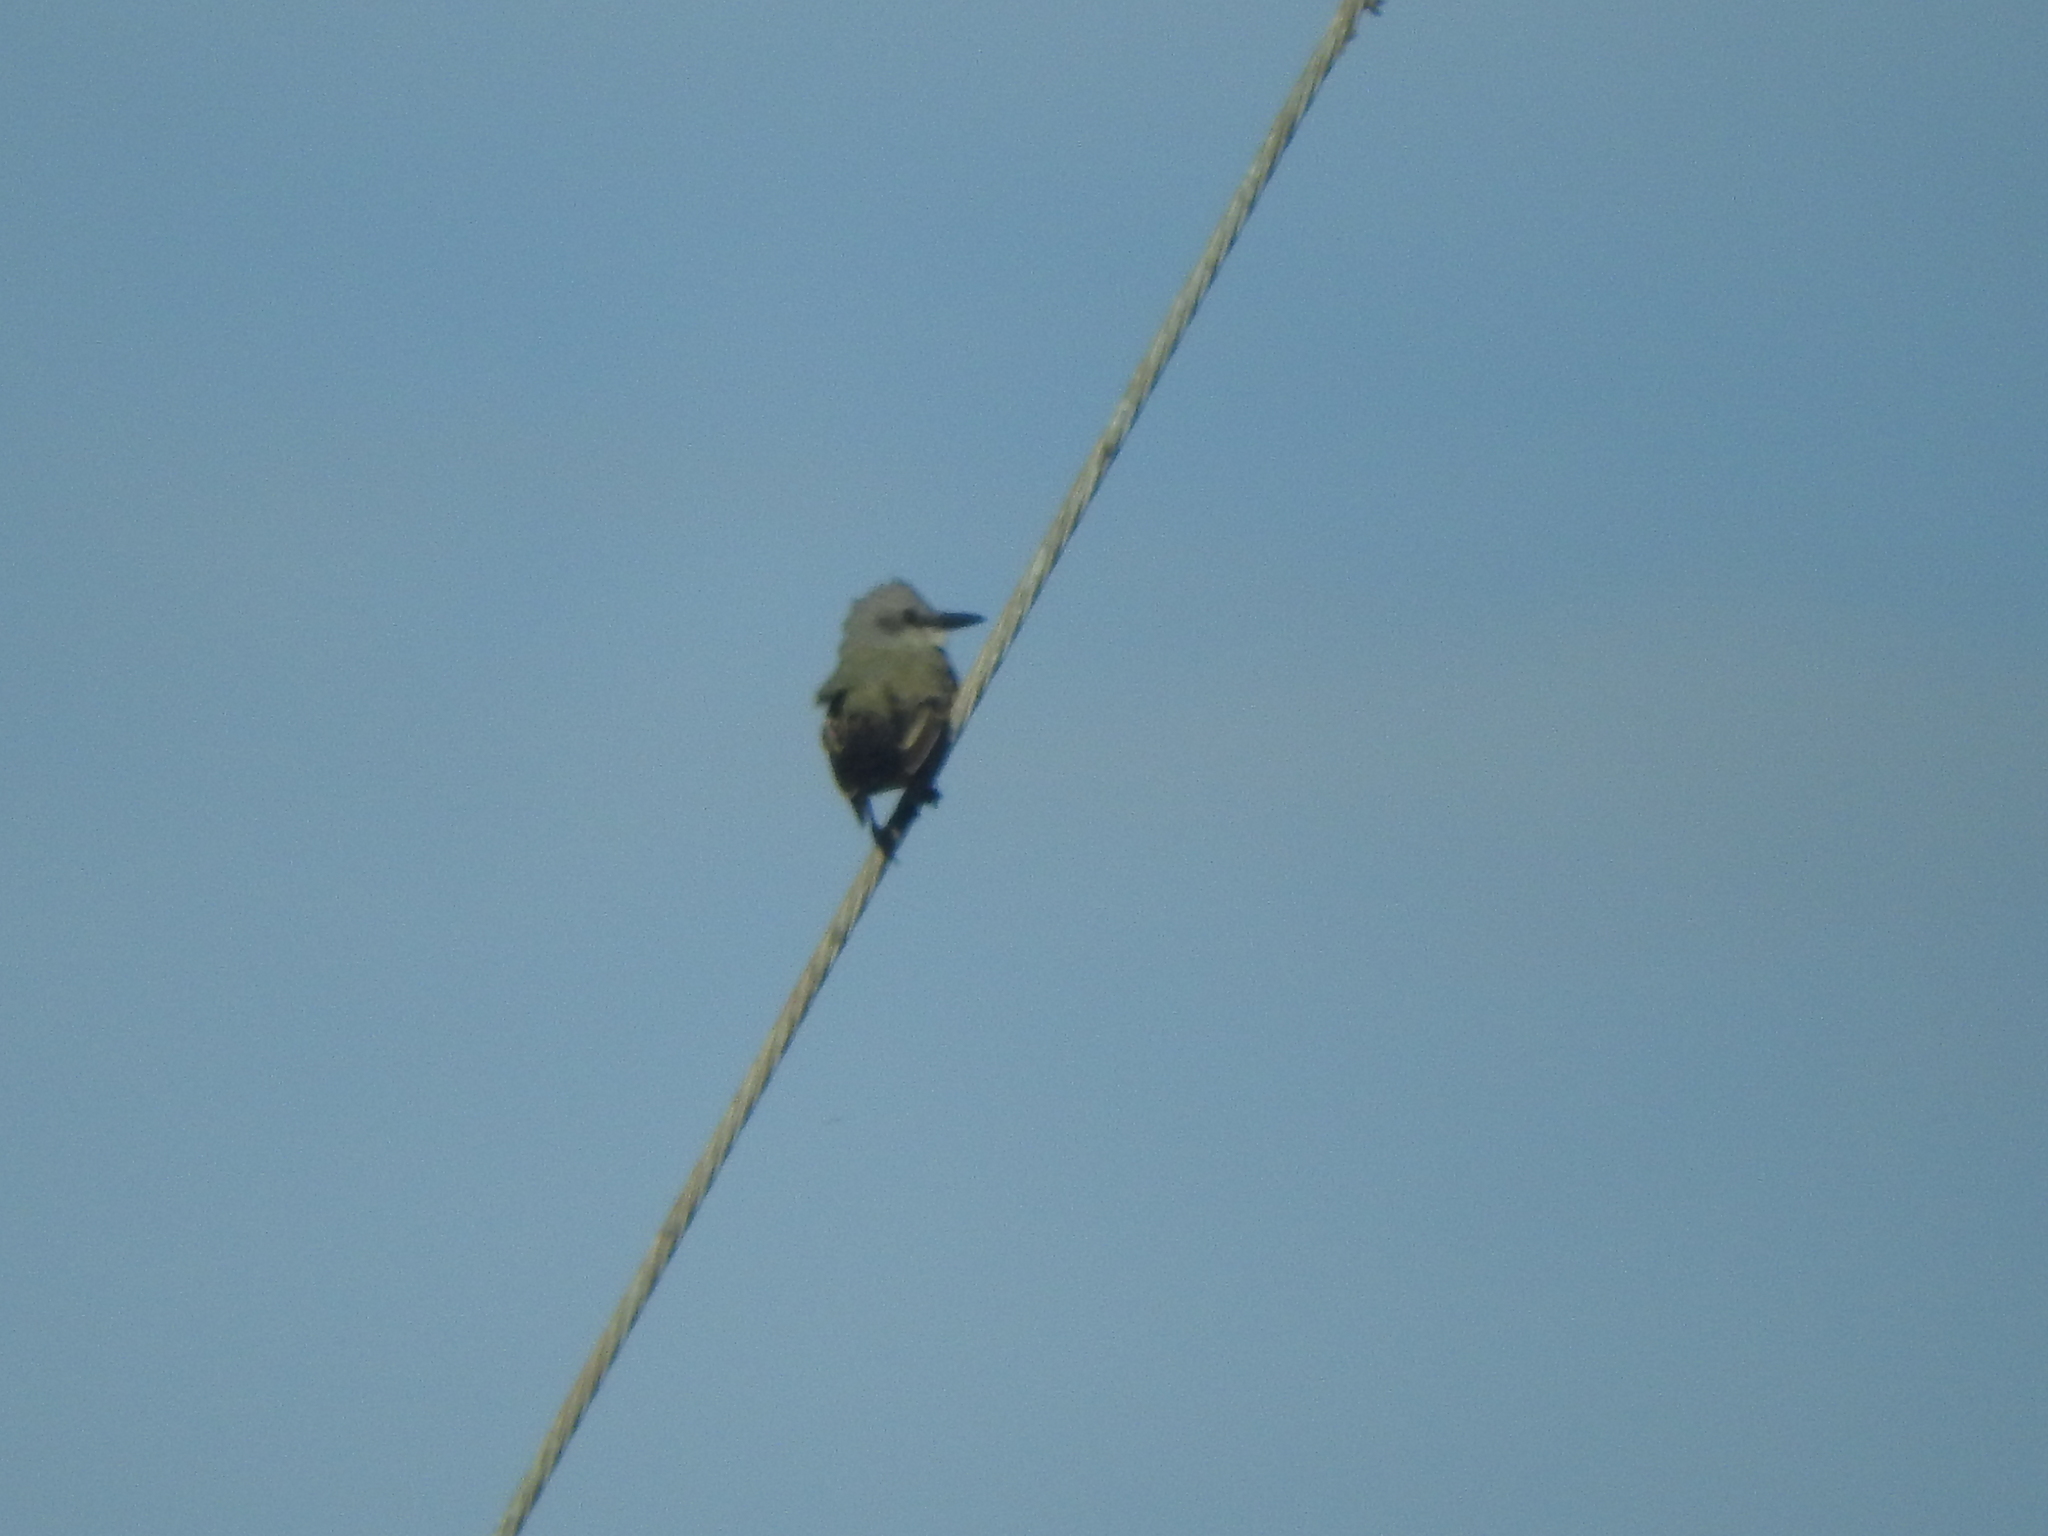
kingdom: Animalia
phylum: Chordata
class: Aves
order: Passeriformes
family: Tyrannidae
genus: Tyrannus
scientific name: Tyrannus melancholicus
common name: Tropical kingbird
